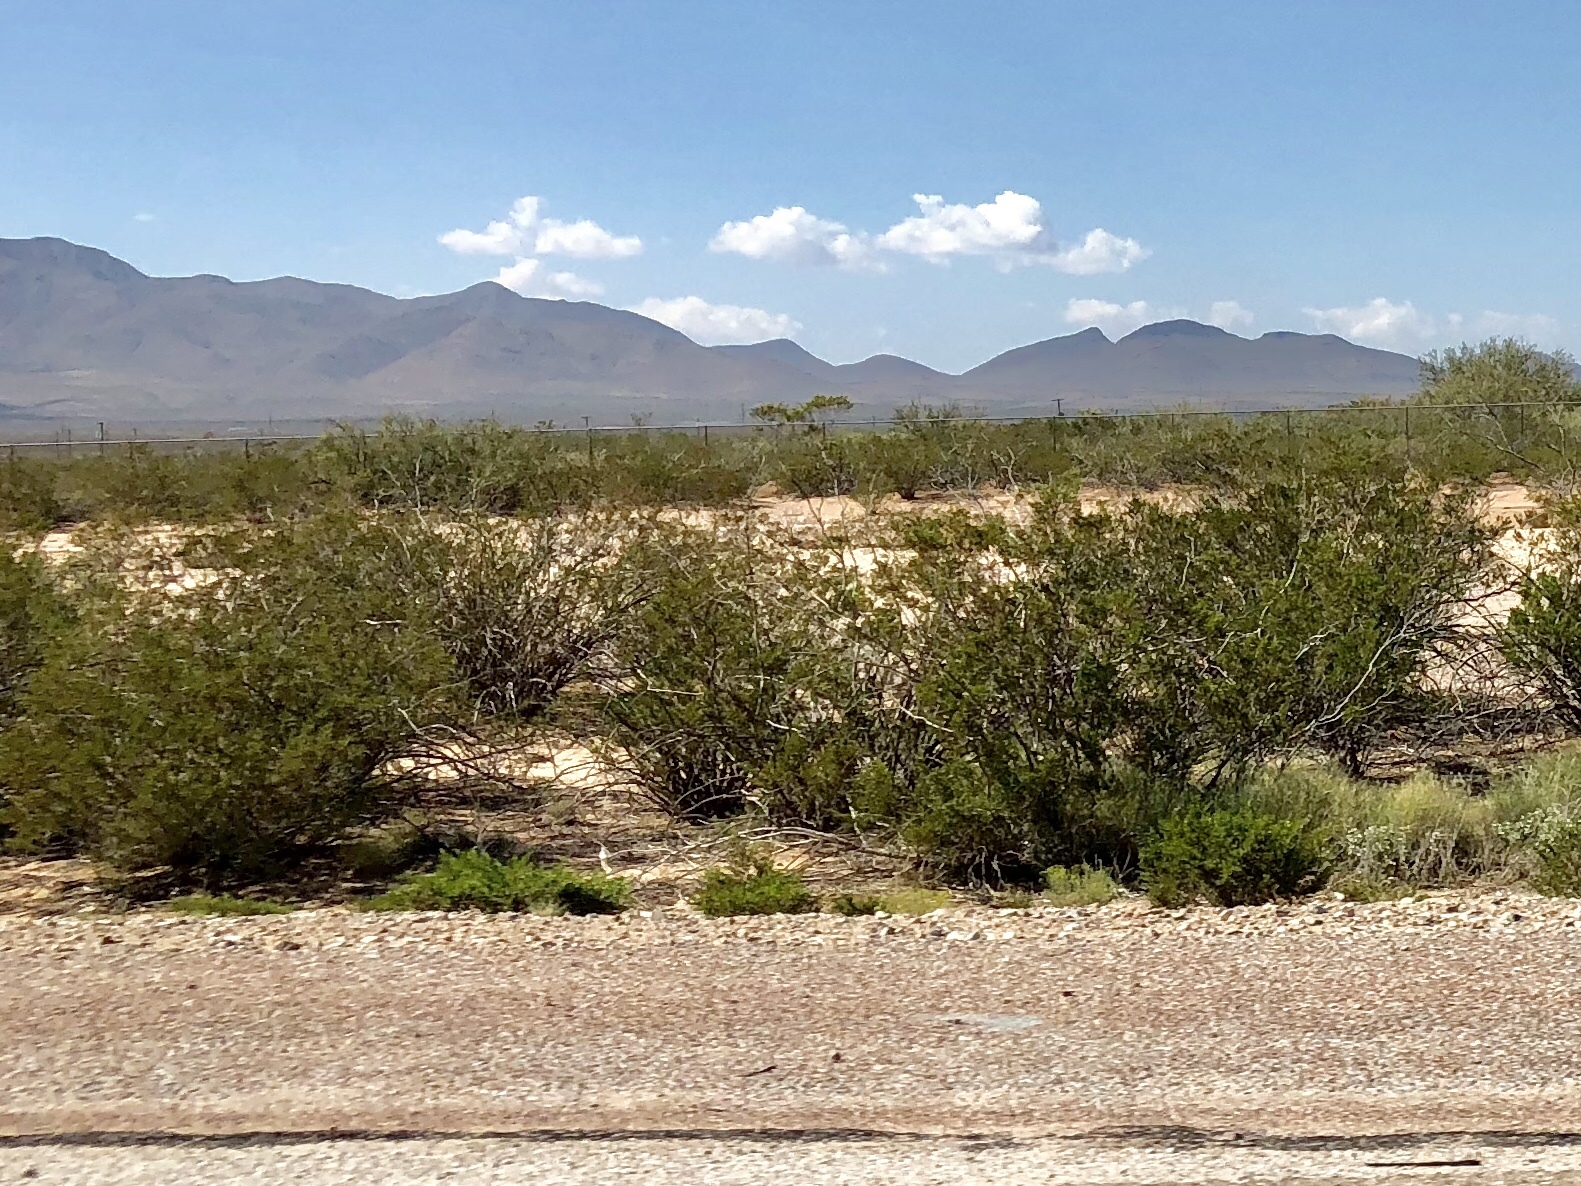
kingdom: Plantae
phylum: Tracheophyta
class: Magnoliopsida
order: Zygophyllales
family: Zygophyllaceae
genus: Larrea
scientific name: Larrea tridentata
